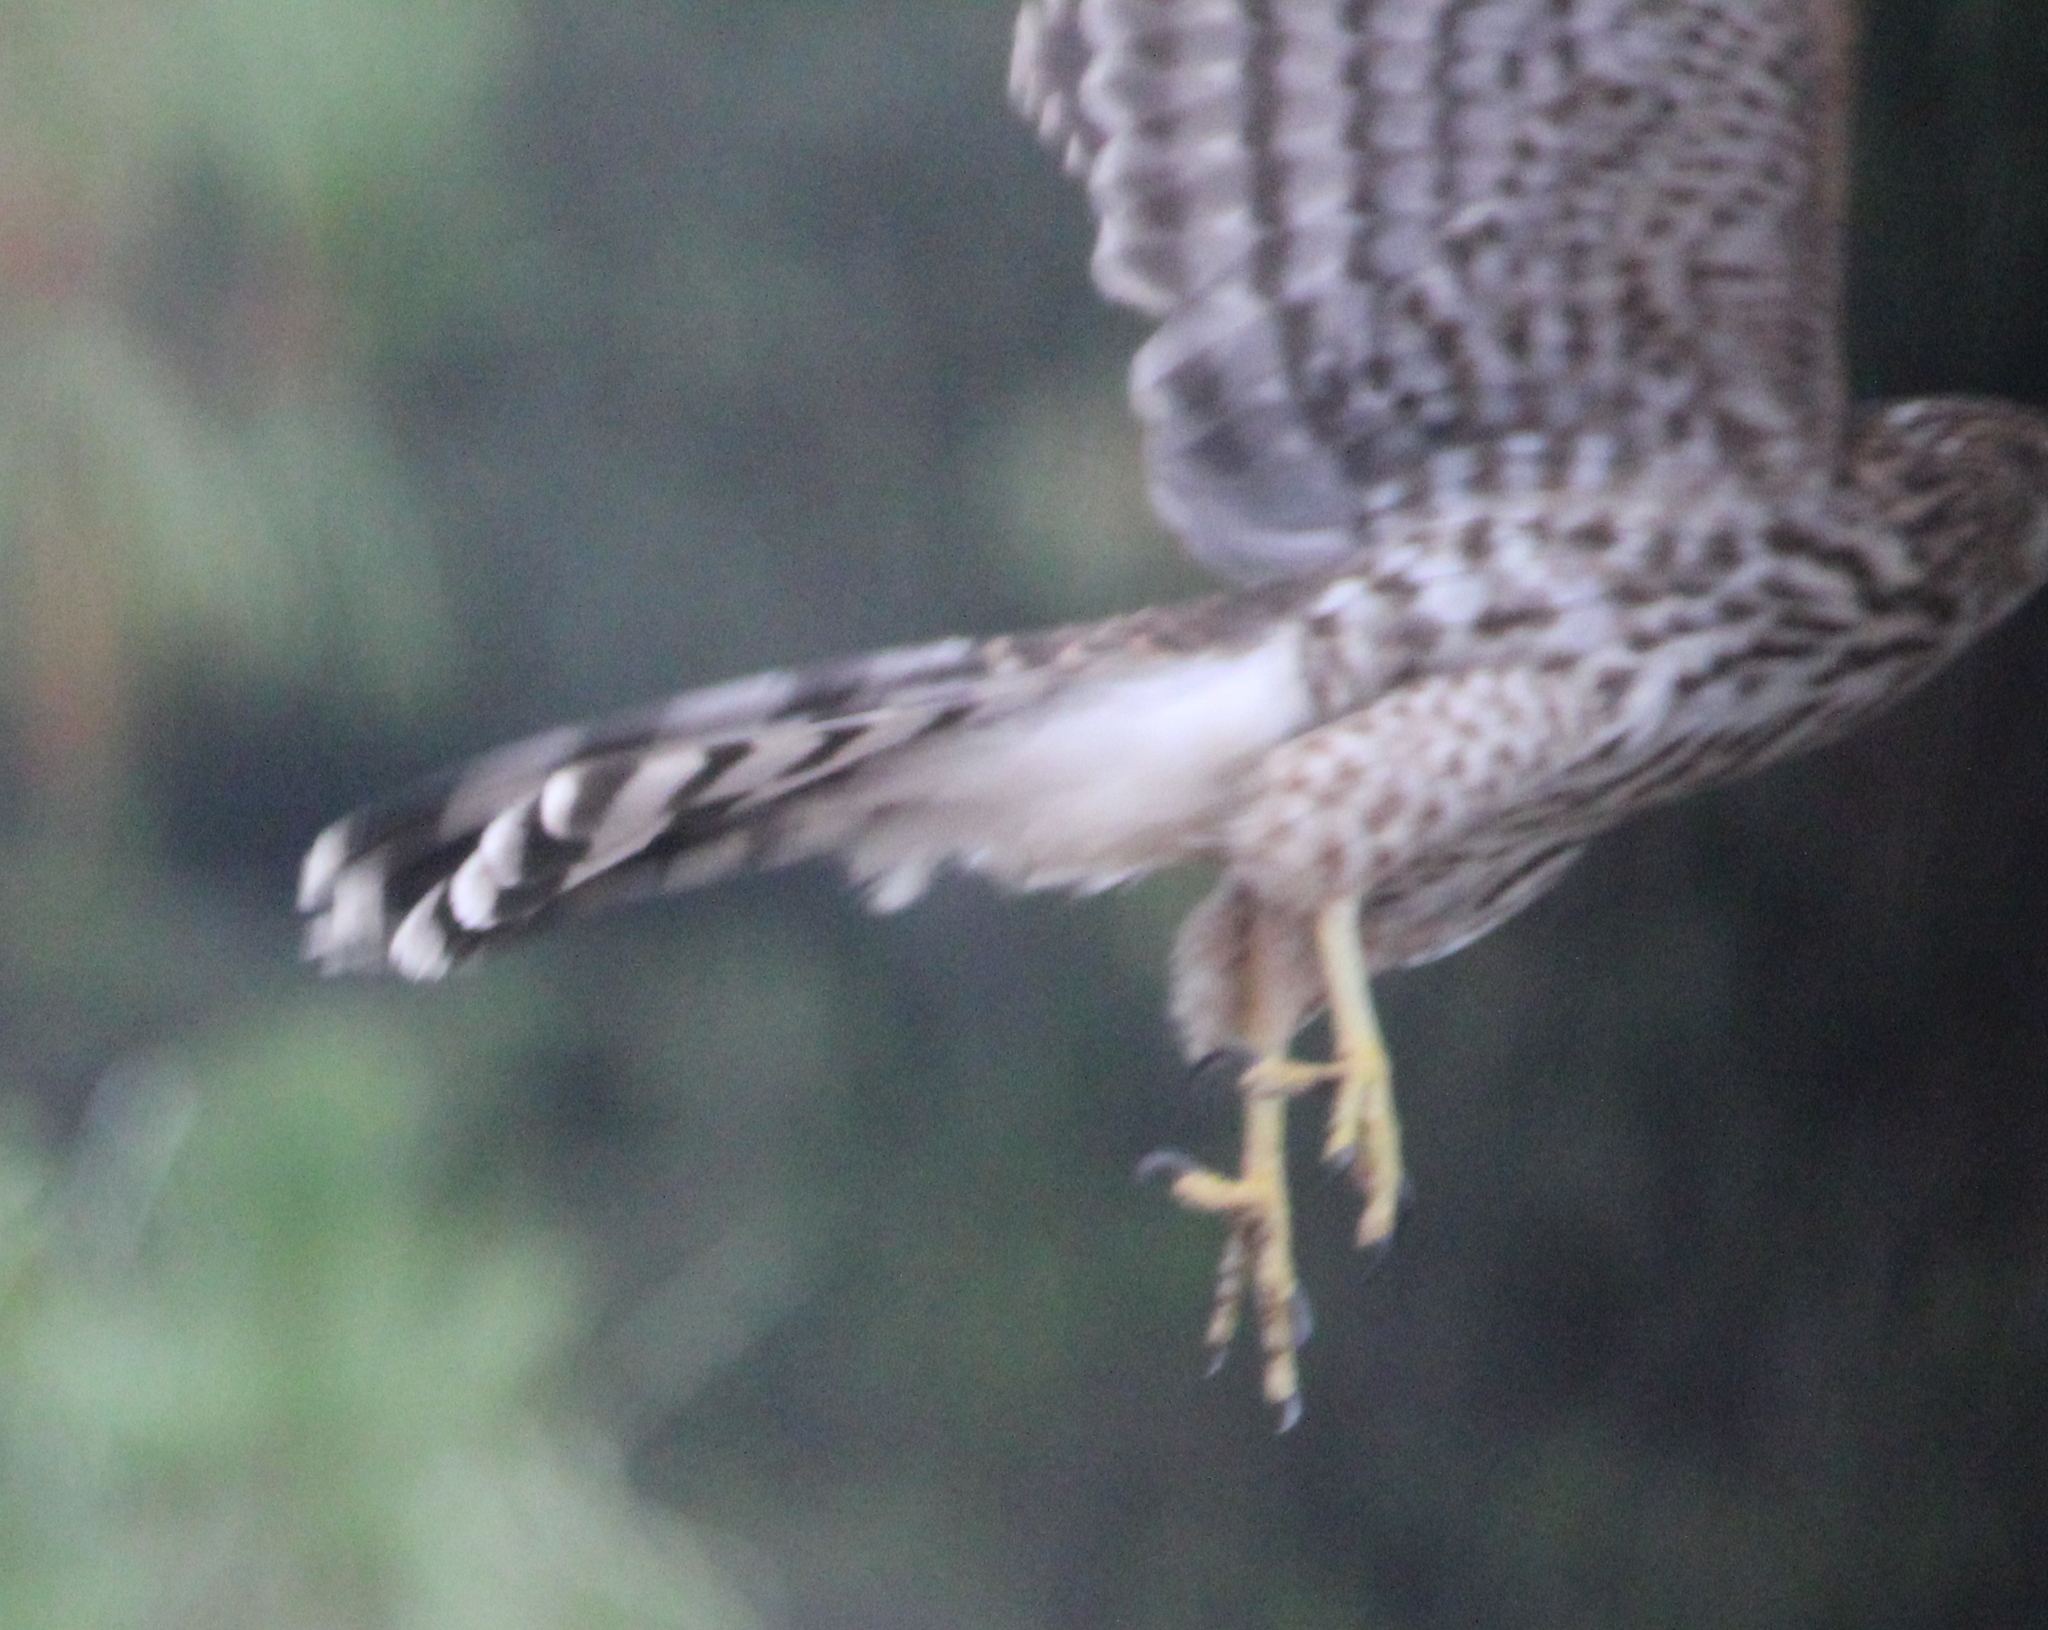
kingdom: Animalia
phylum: Chordata
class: Aves
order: Accipitriformes
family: Accipitridae
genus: Accipiter
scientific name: Accipiter cooperii
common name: Cooper's hawk
